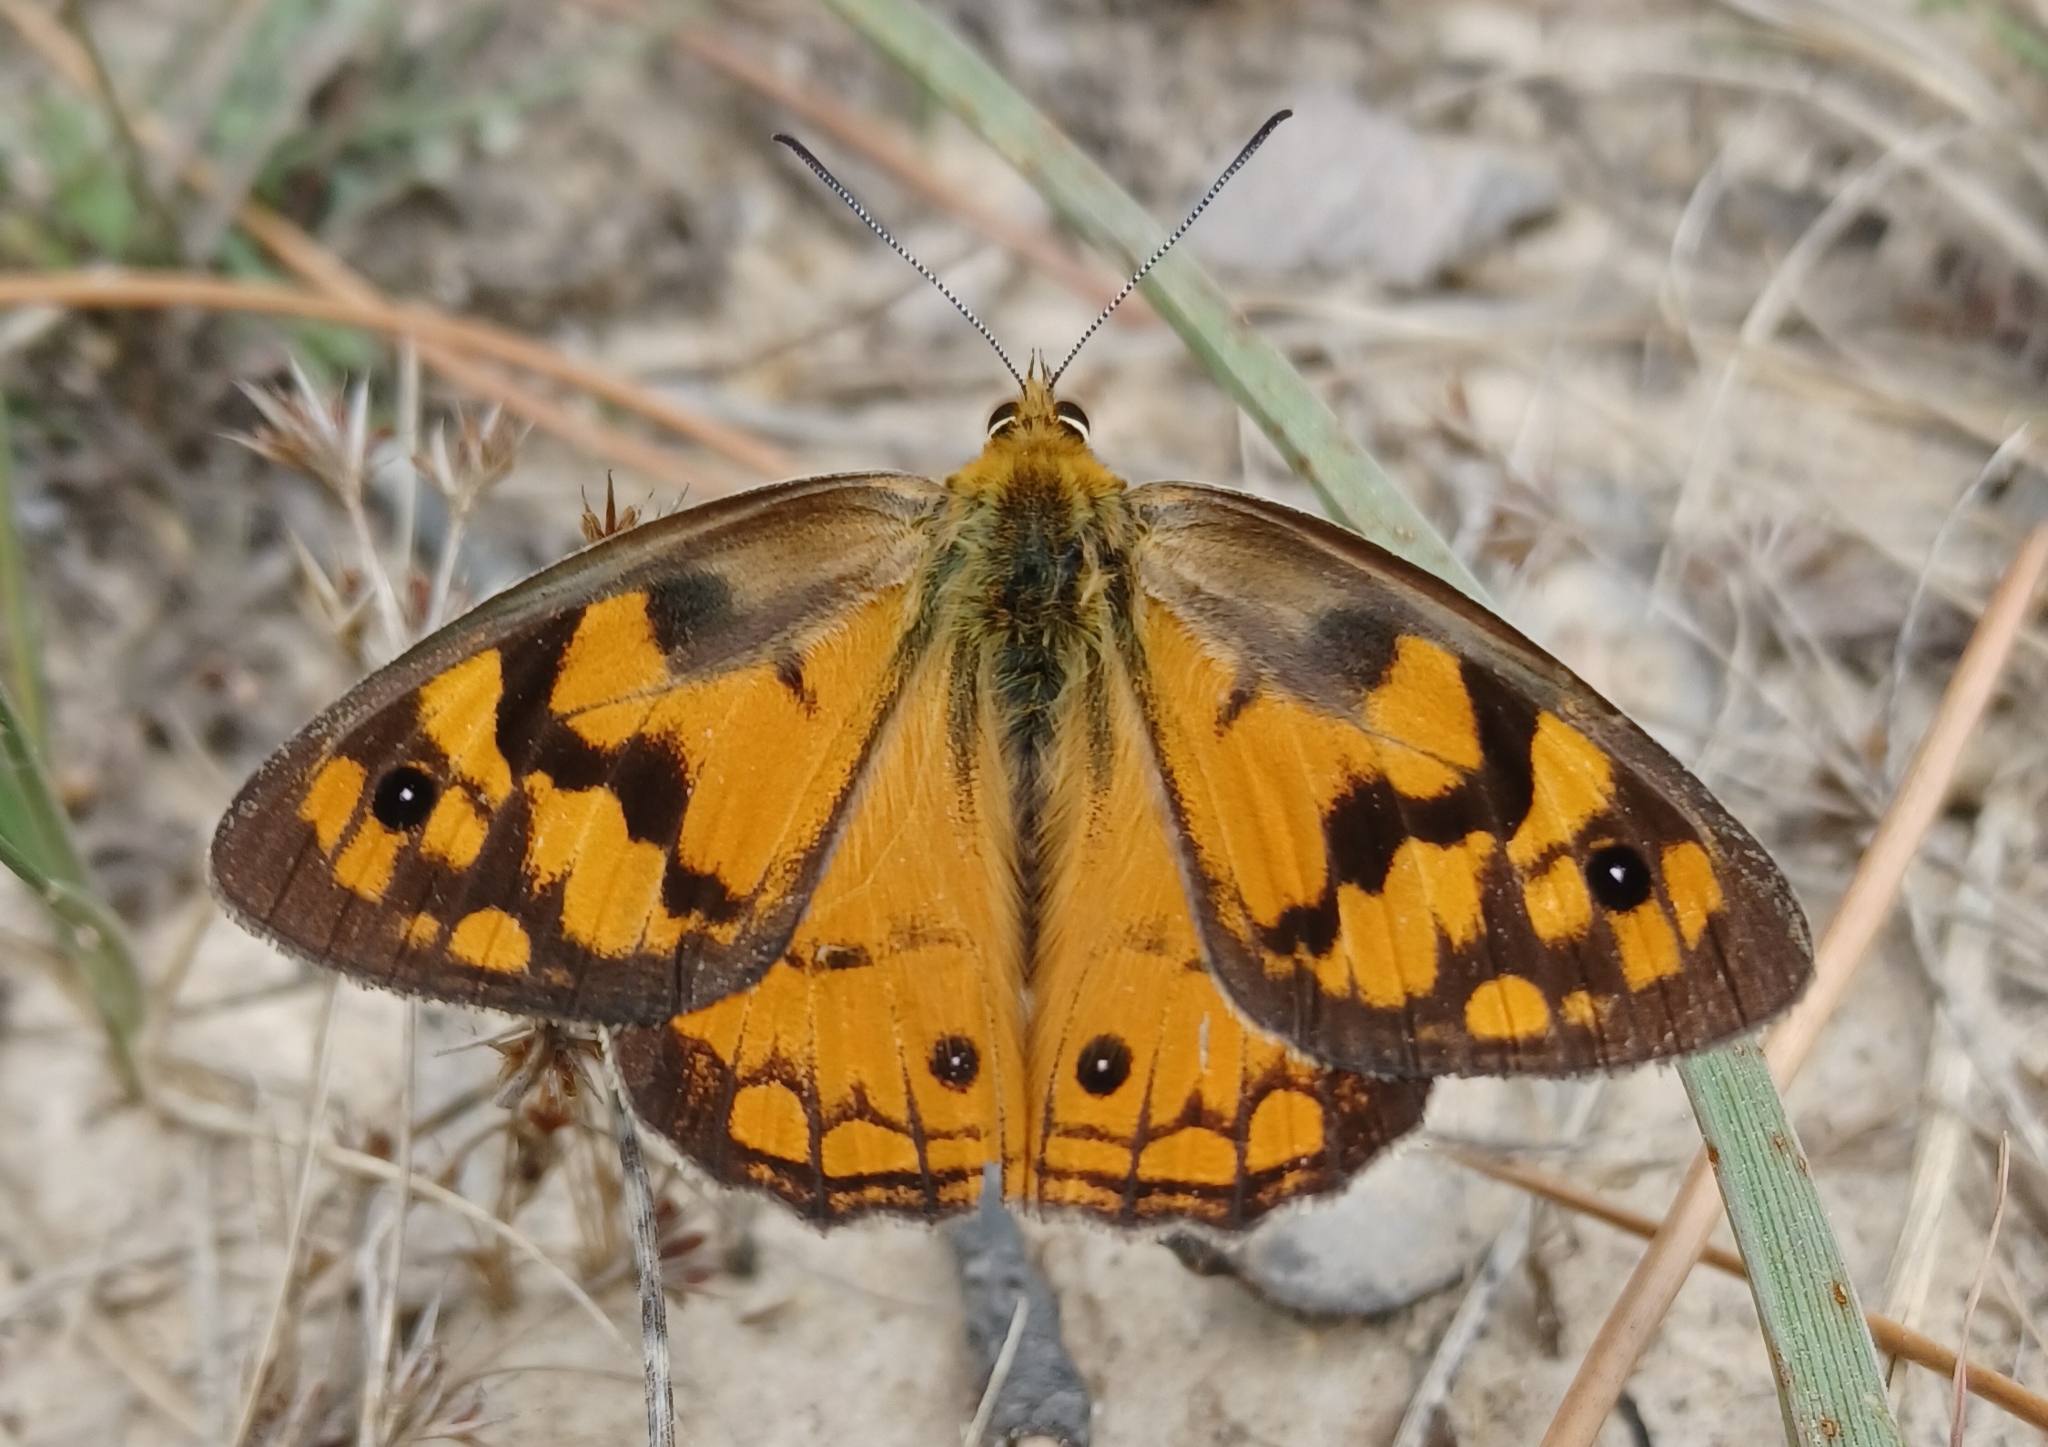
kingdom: Animalia
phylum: Arthropoda
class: Insecta
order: Lepidoptera
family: Nymphalidae
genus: Heteronympha
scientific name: Heteronympha penelope
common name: Shouldered brown
